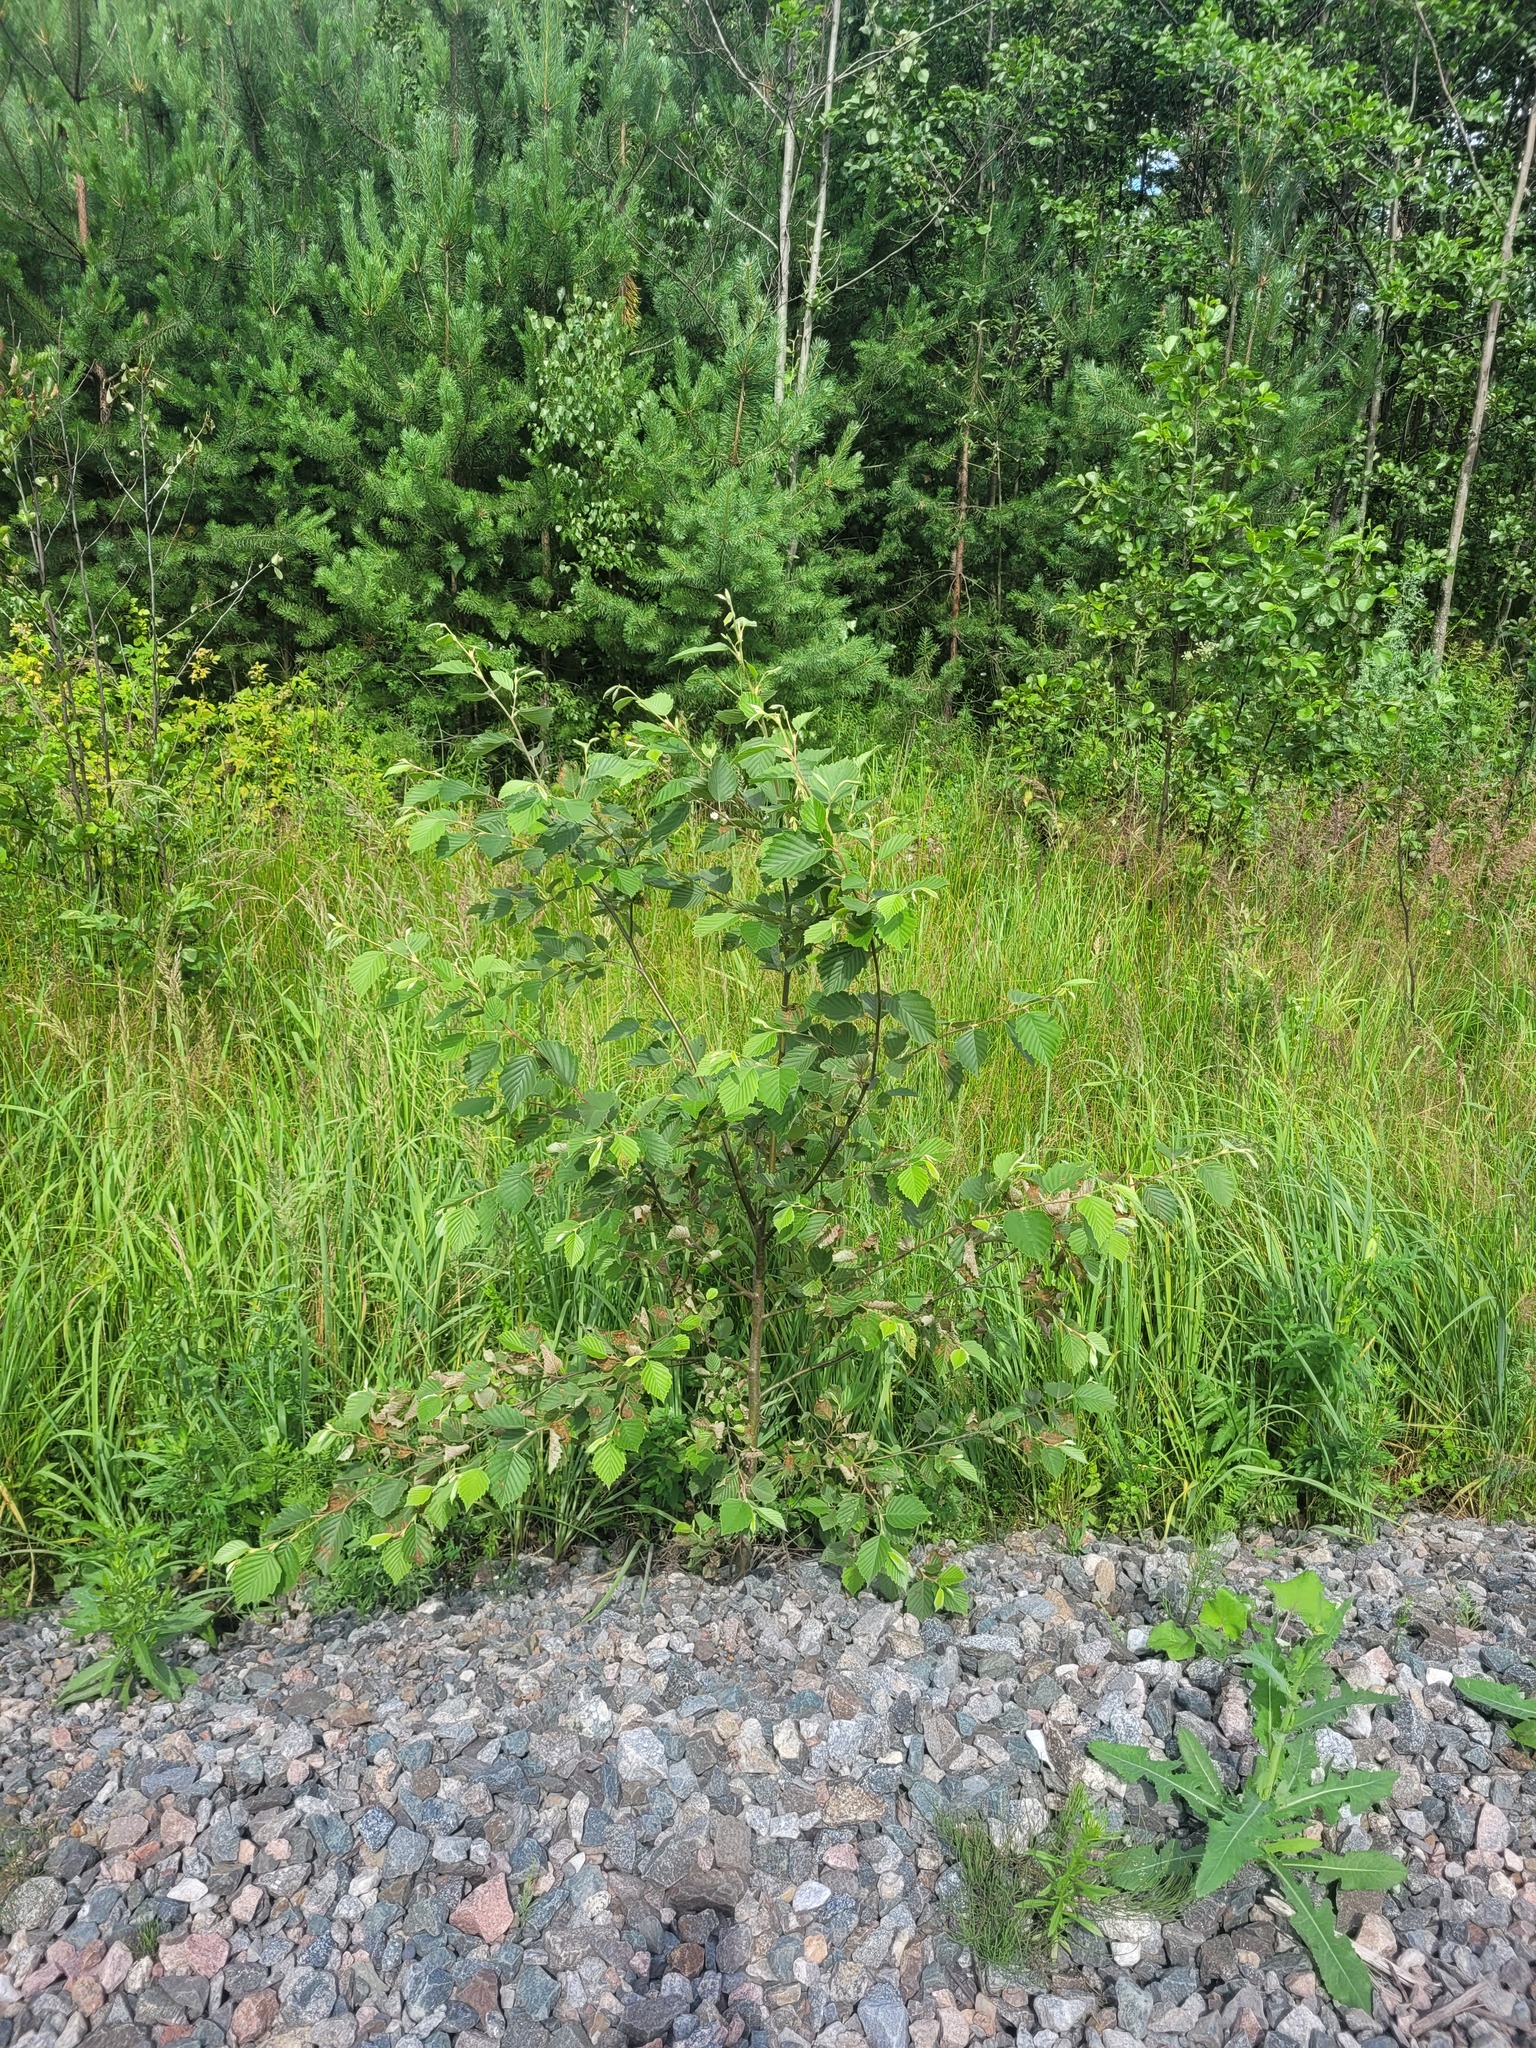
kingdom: Plantae
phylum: Tracheophyta
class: Magnoliopsida
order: Fagales
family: Betulaceae
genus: Alnus
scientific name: Alnus incana
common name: Grey alder
